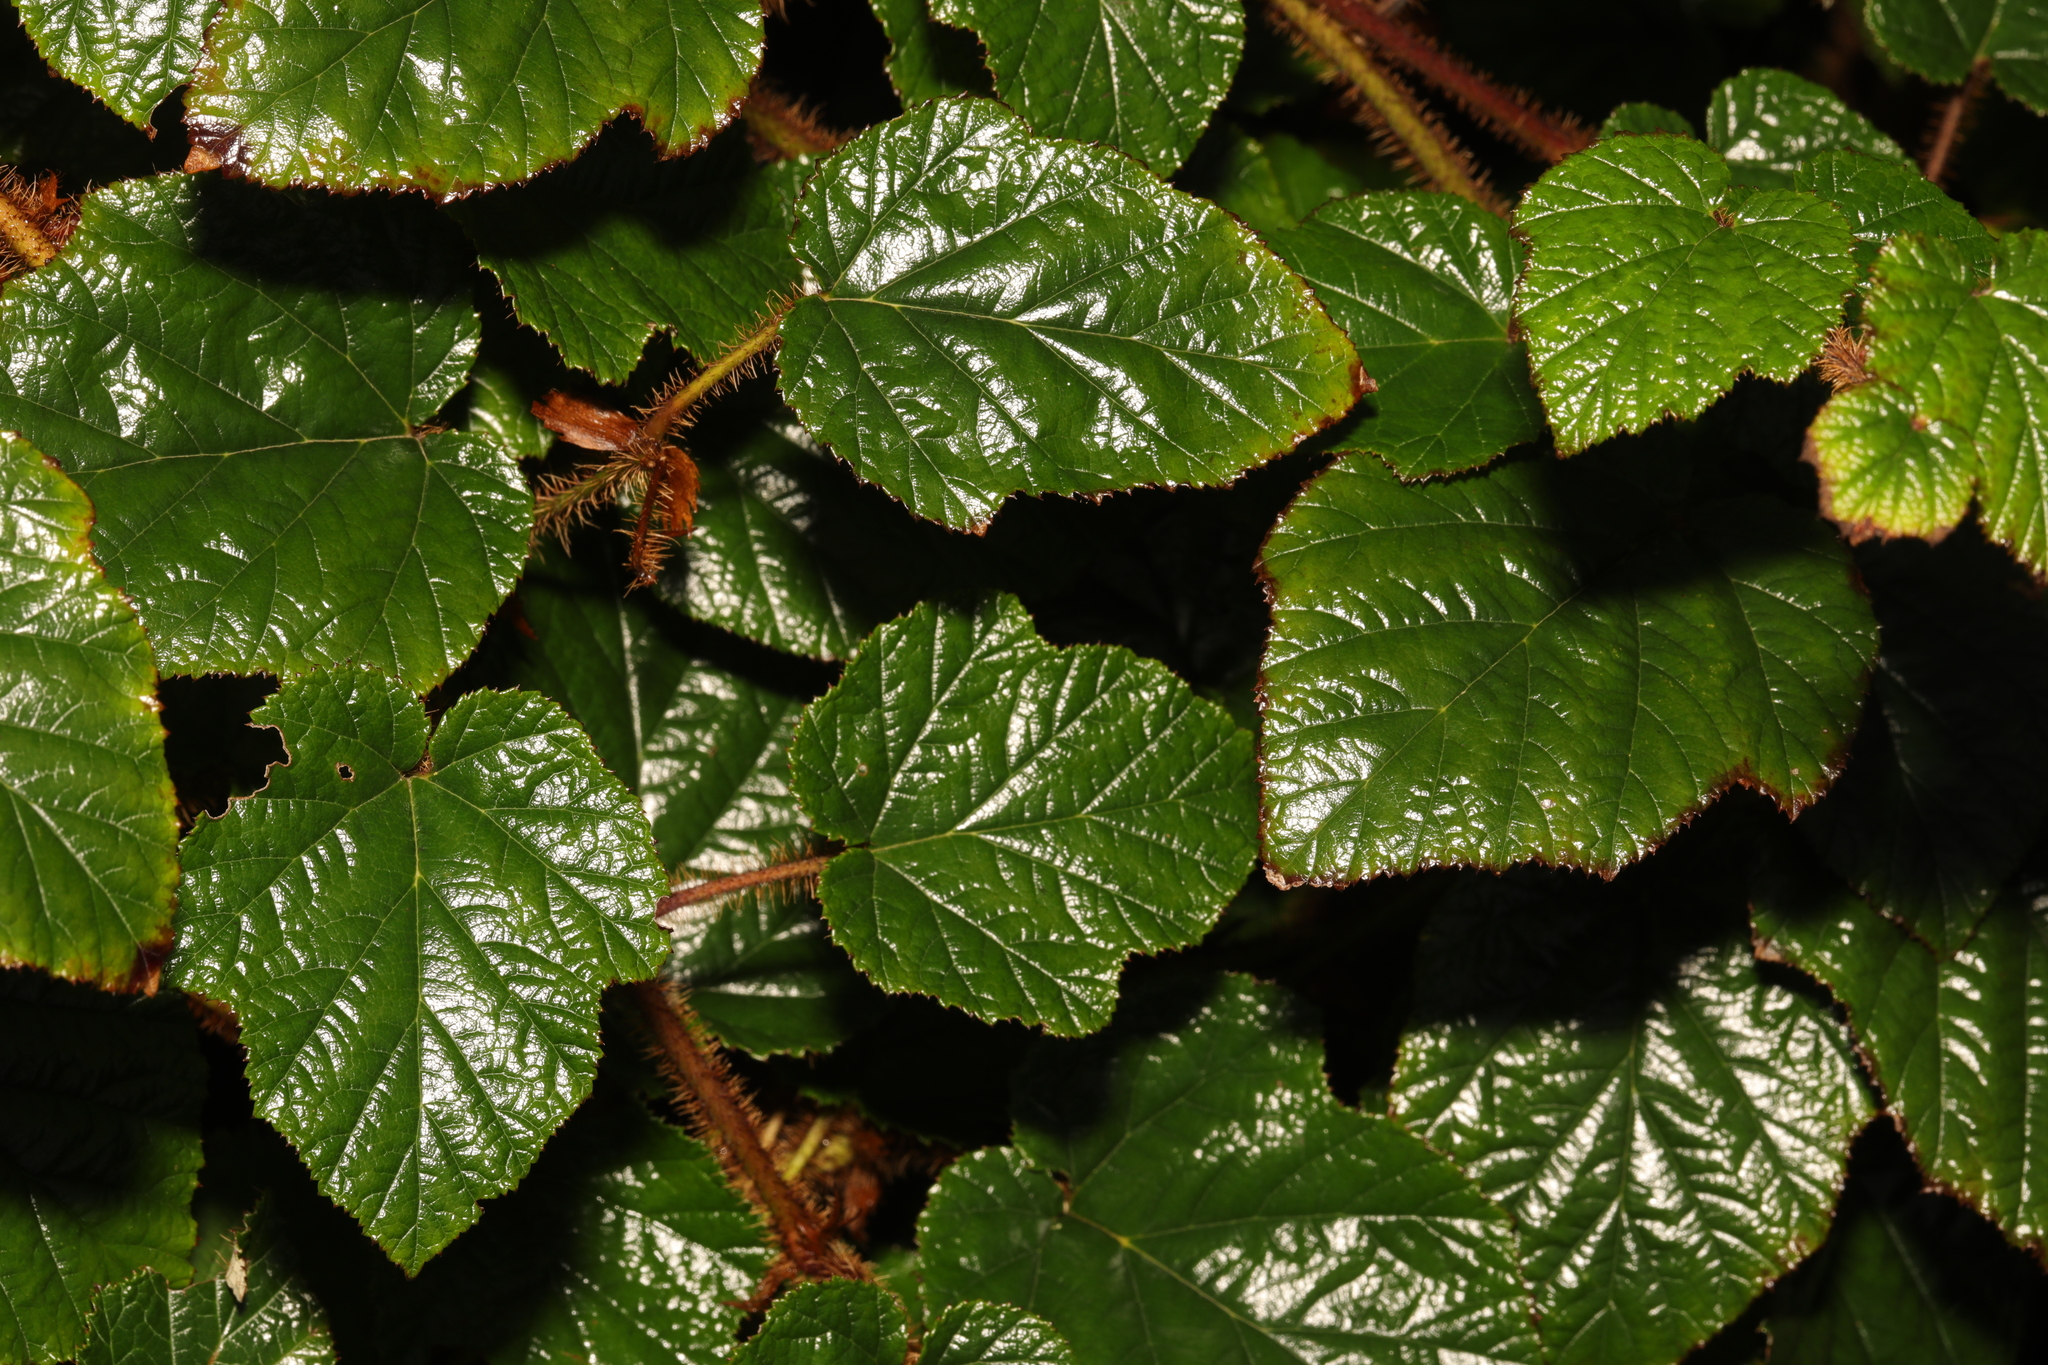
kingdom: Plantae
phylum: Tracheophyta
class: Magnoliopsida
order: Rosales
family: Rosaceae
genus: Rubus
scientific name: Rubus tricolor
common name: Chinese bramble
